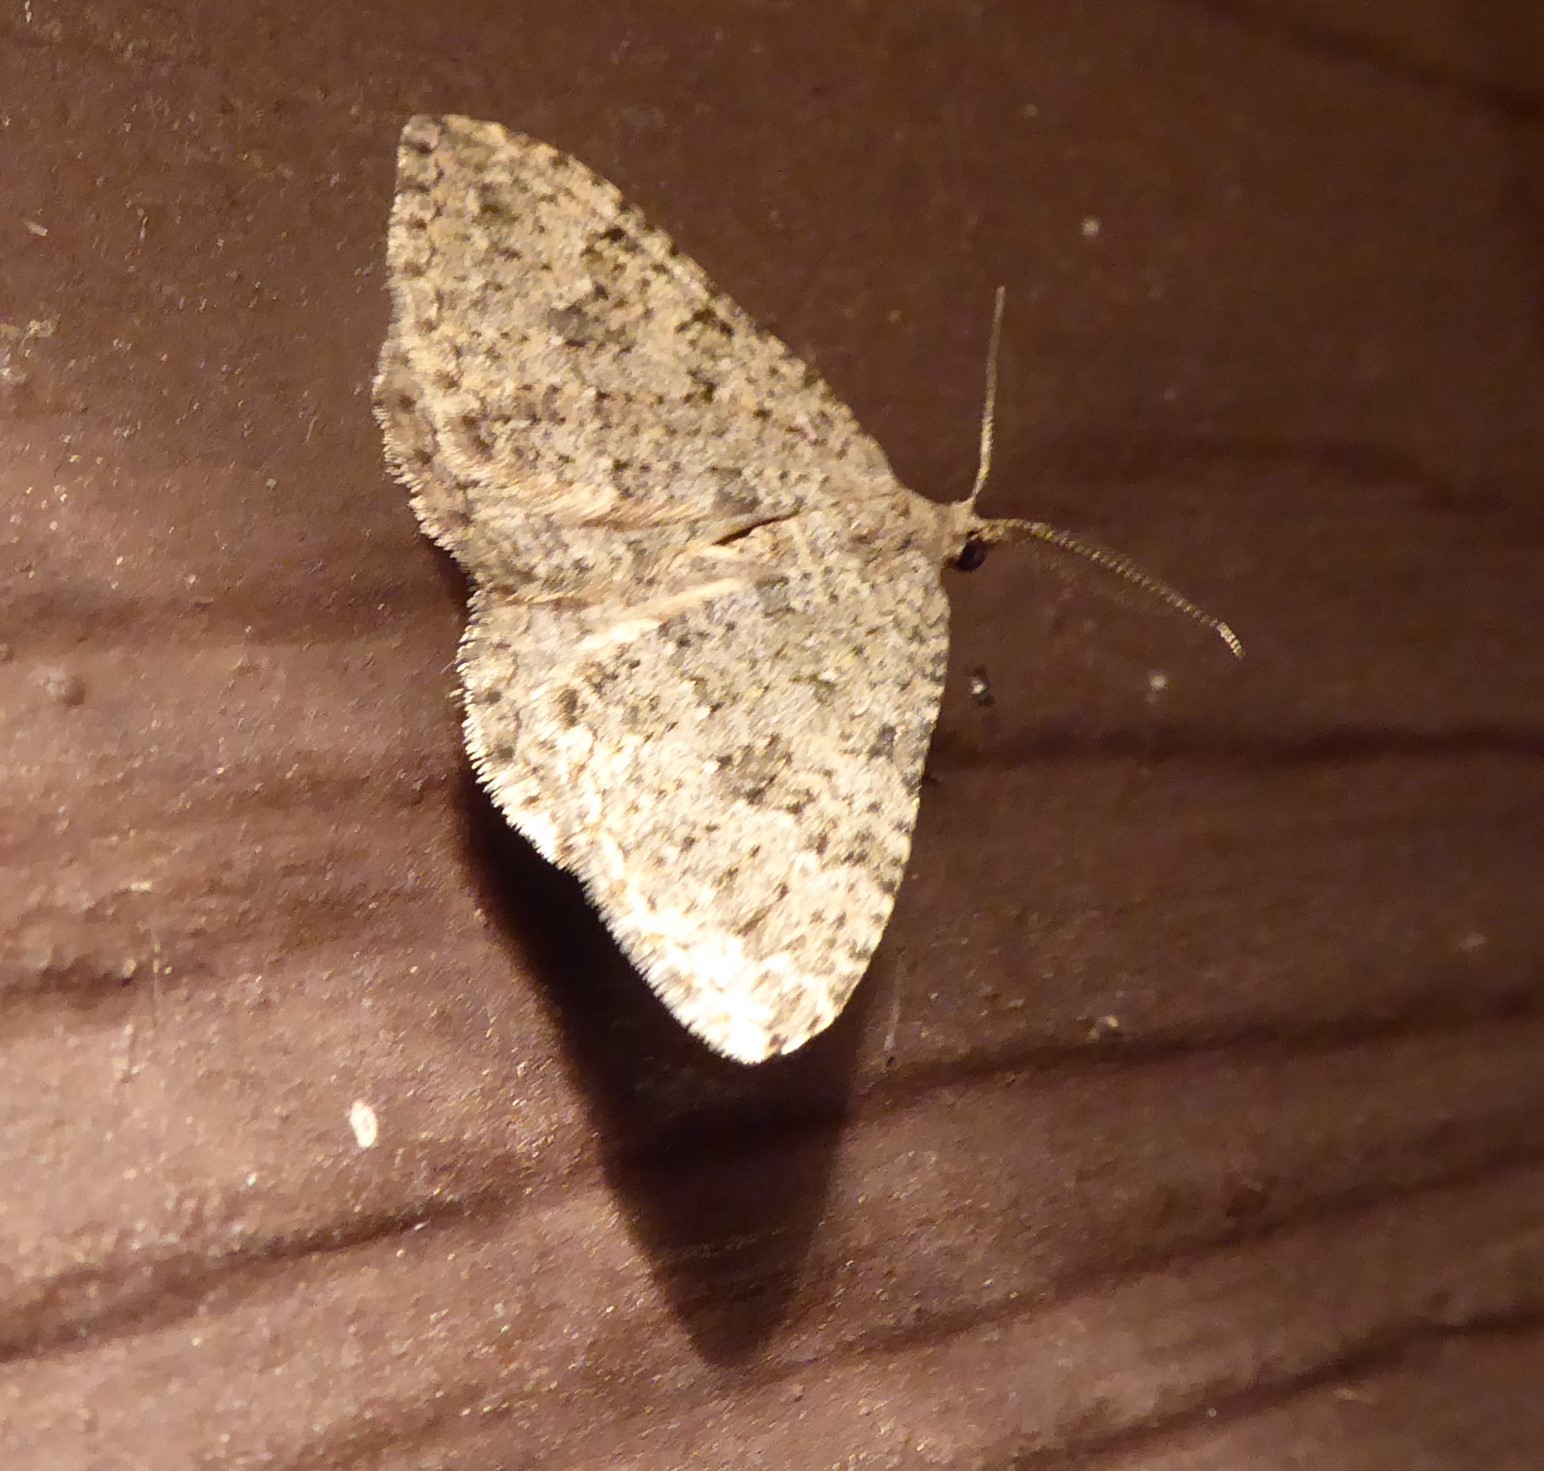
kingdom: Animalia
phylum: Arthropoda
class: Insecta
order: Lepidoptera
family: Geometridae
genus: Helastia
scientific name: Helastia corcularia
